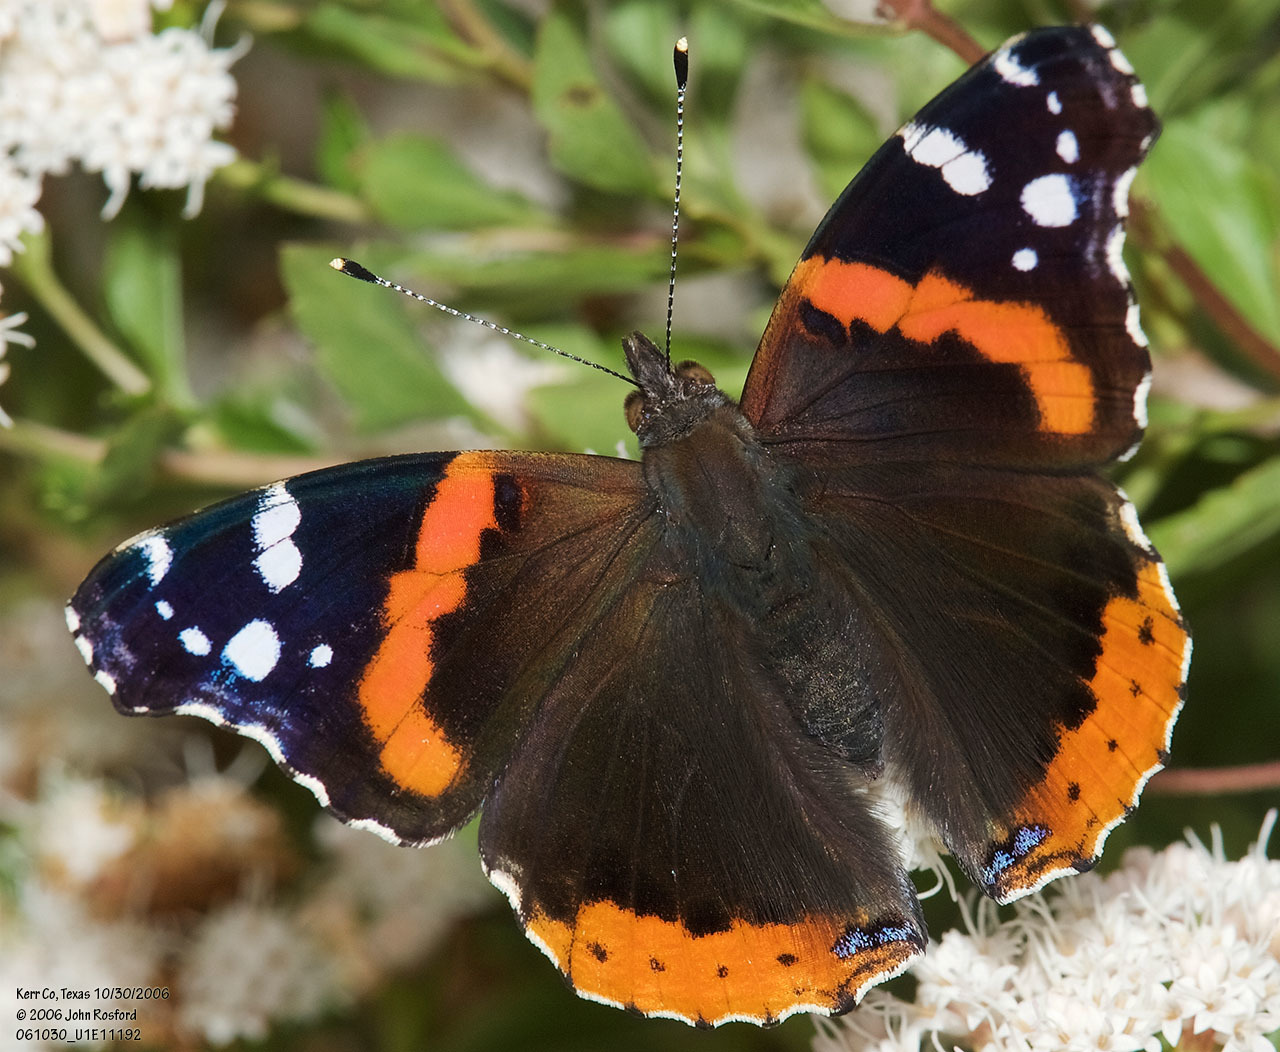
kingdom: Animalia
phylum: Arthropoda
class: Insecta
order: Lepidoptera
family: Nymphalidae
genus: Vanessa
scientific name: Vanessa atalanta
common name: Red admiral
